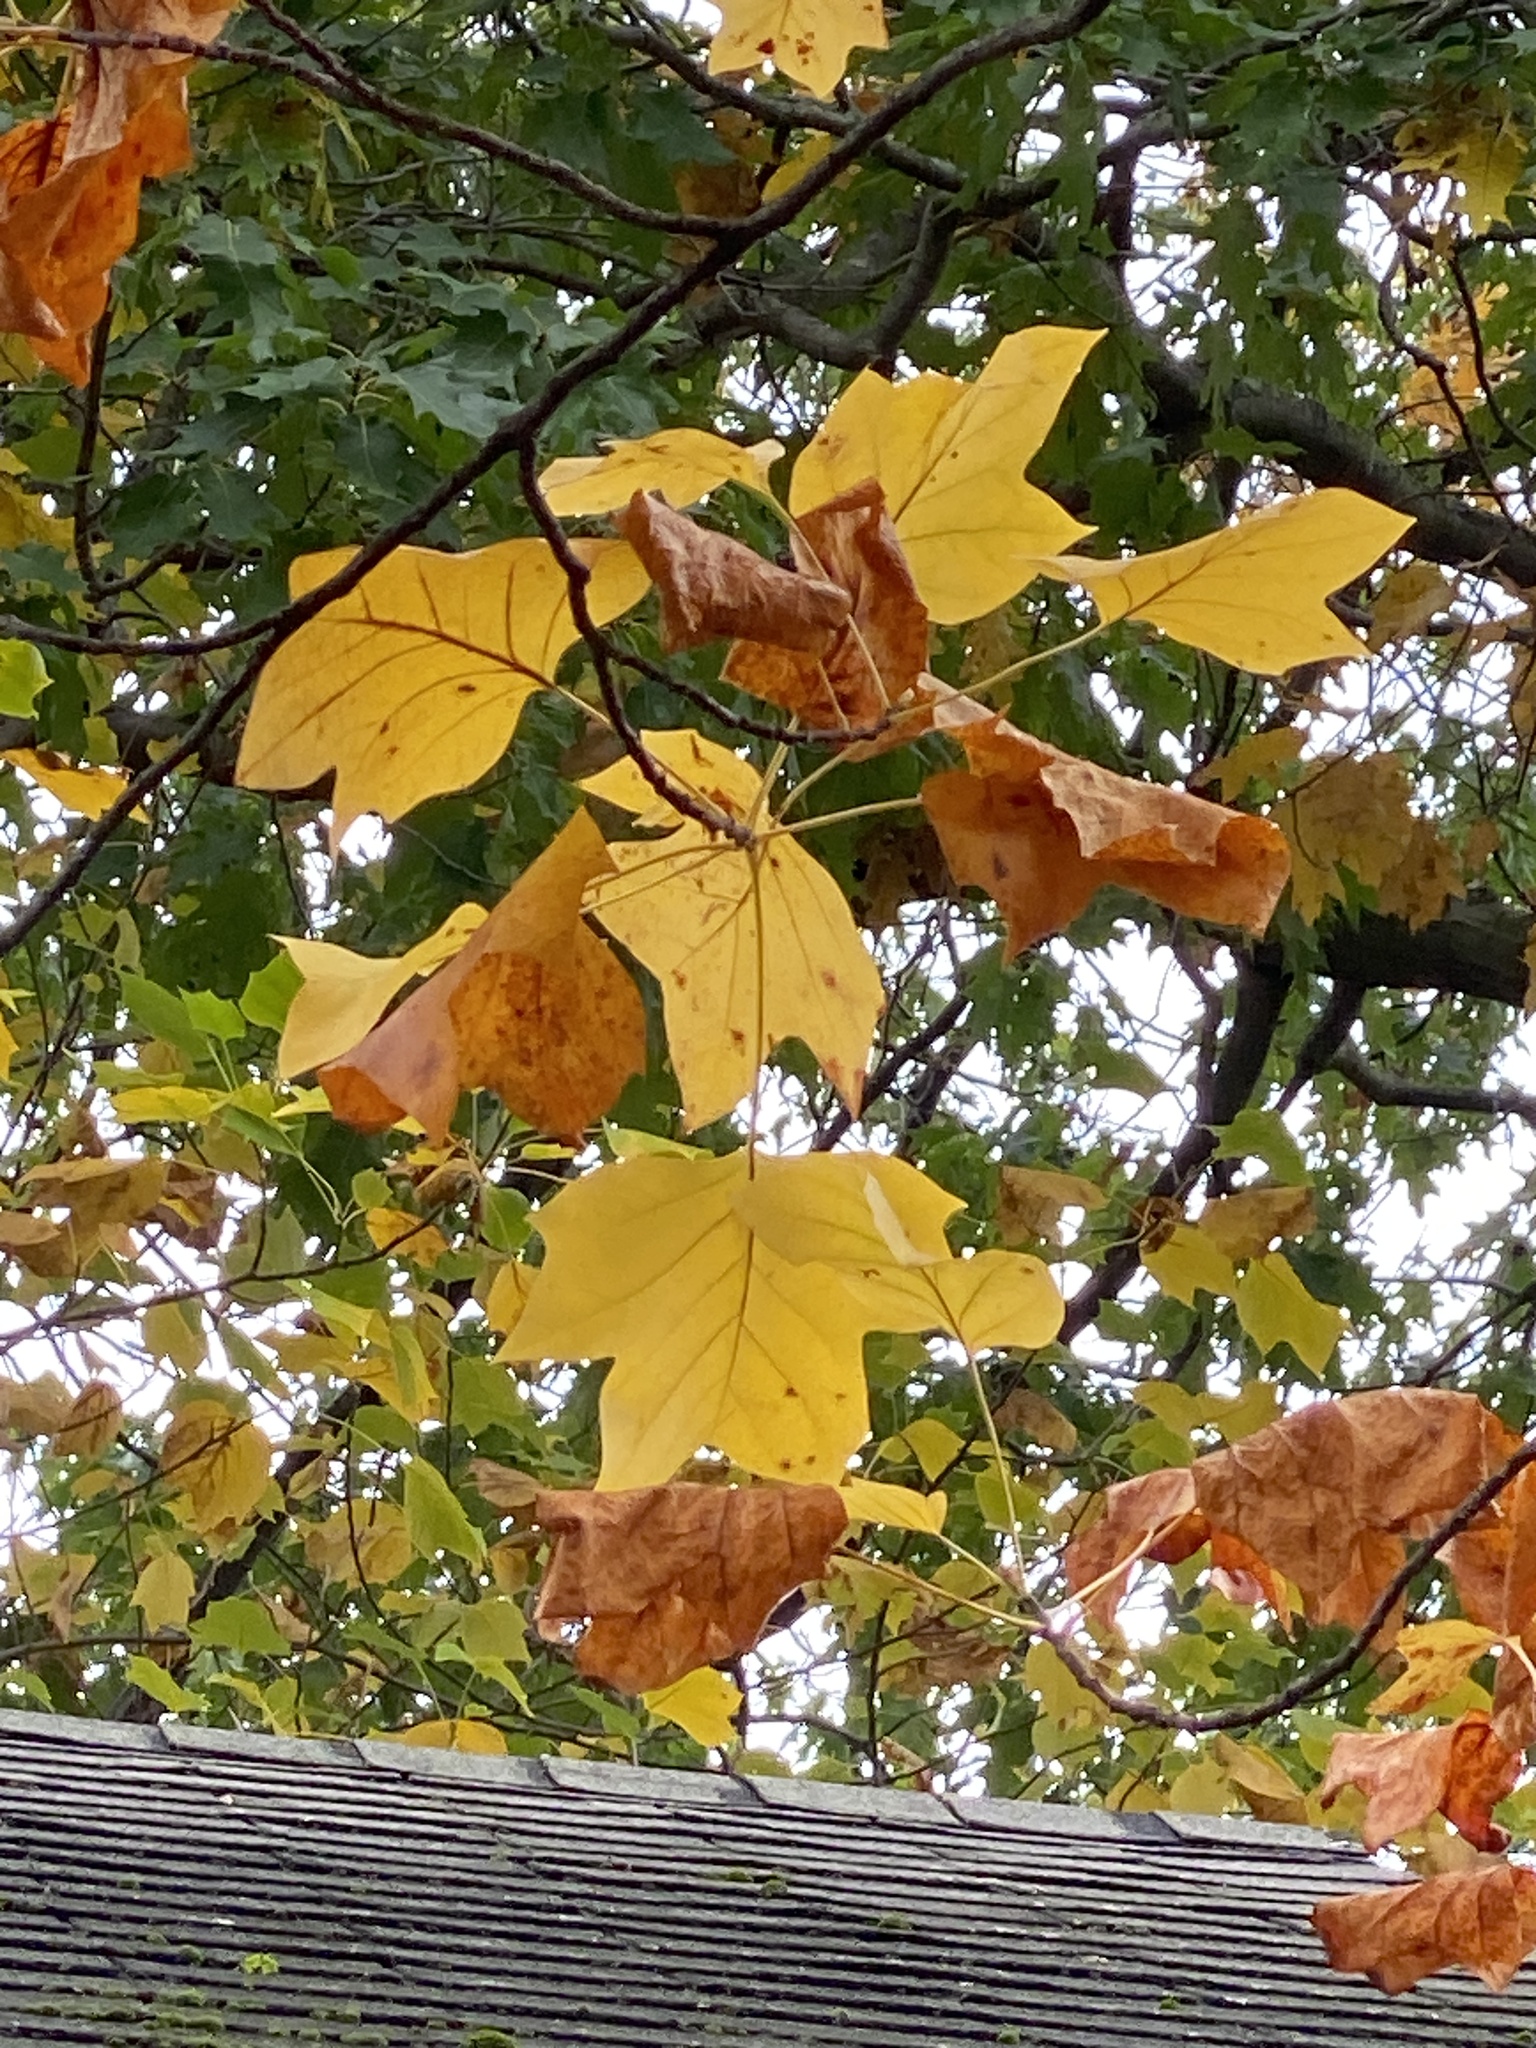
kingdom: Plantae
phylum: Tracheophyta
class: Magnoliopsida
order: Magnoliales
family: Magnoliaceae
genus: Liriodendron
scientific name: Liriodendron tulipifera
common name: Tulip tree
